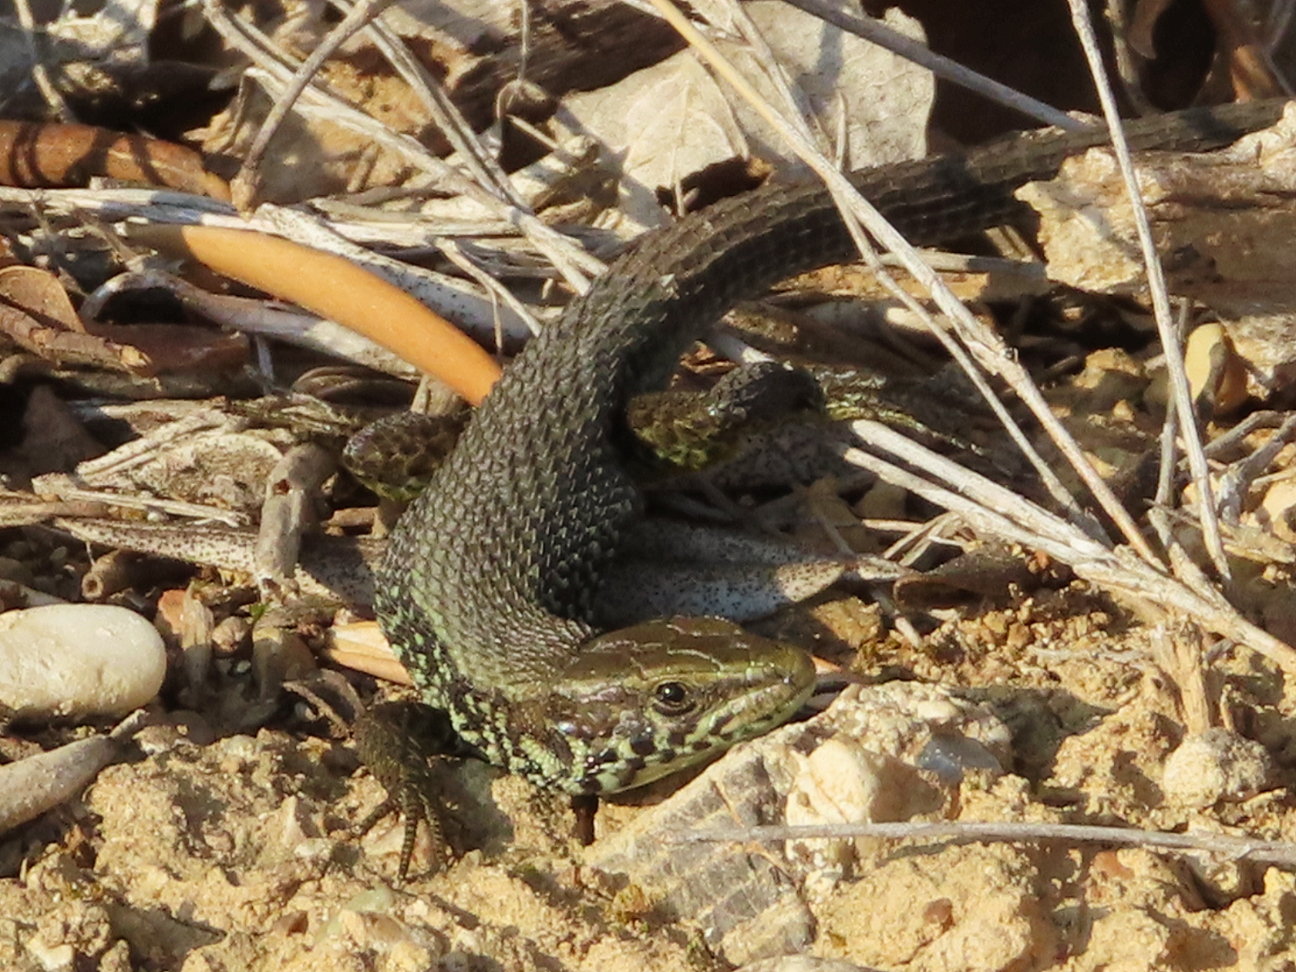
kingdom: Animalia
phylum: Chordata
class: Squamata
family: Lacertidae
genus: Algyroides
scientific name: Algyroides moreoticus
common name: Greek algyroides
